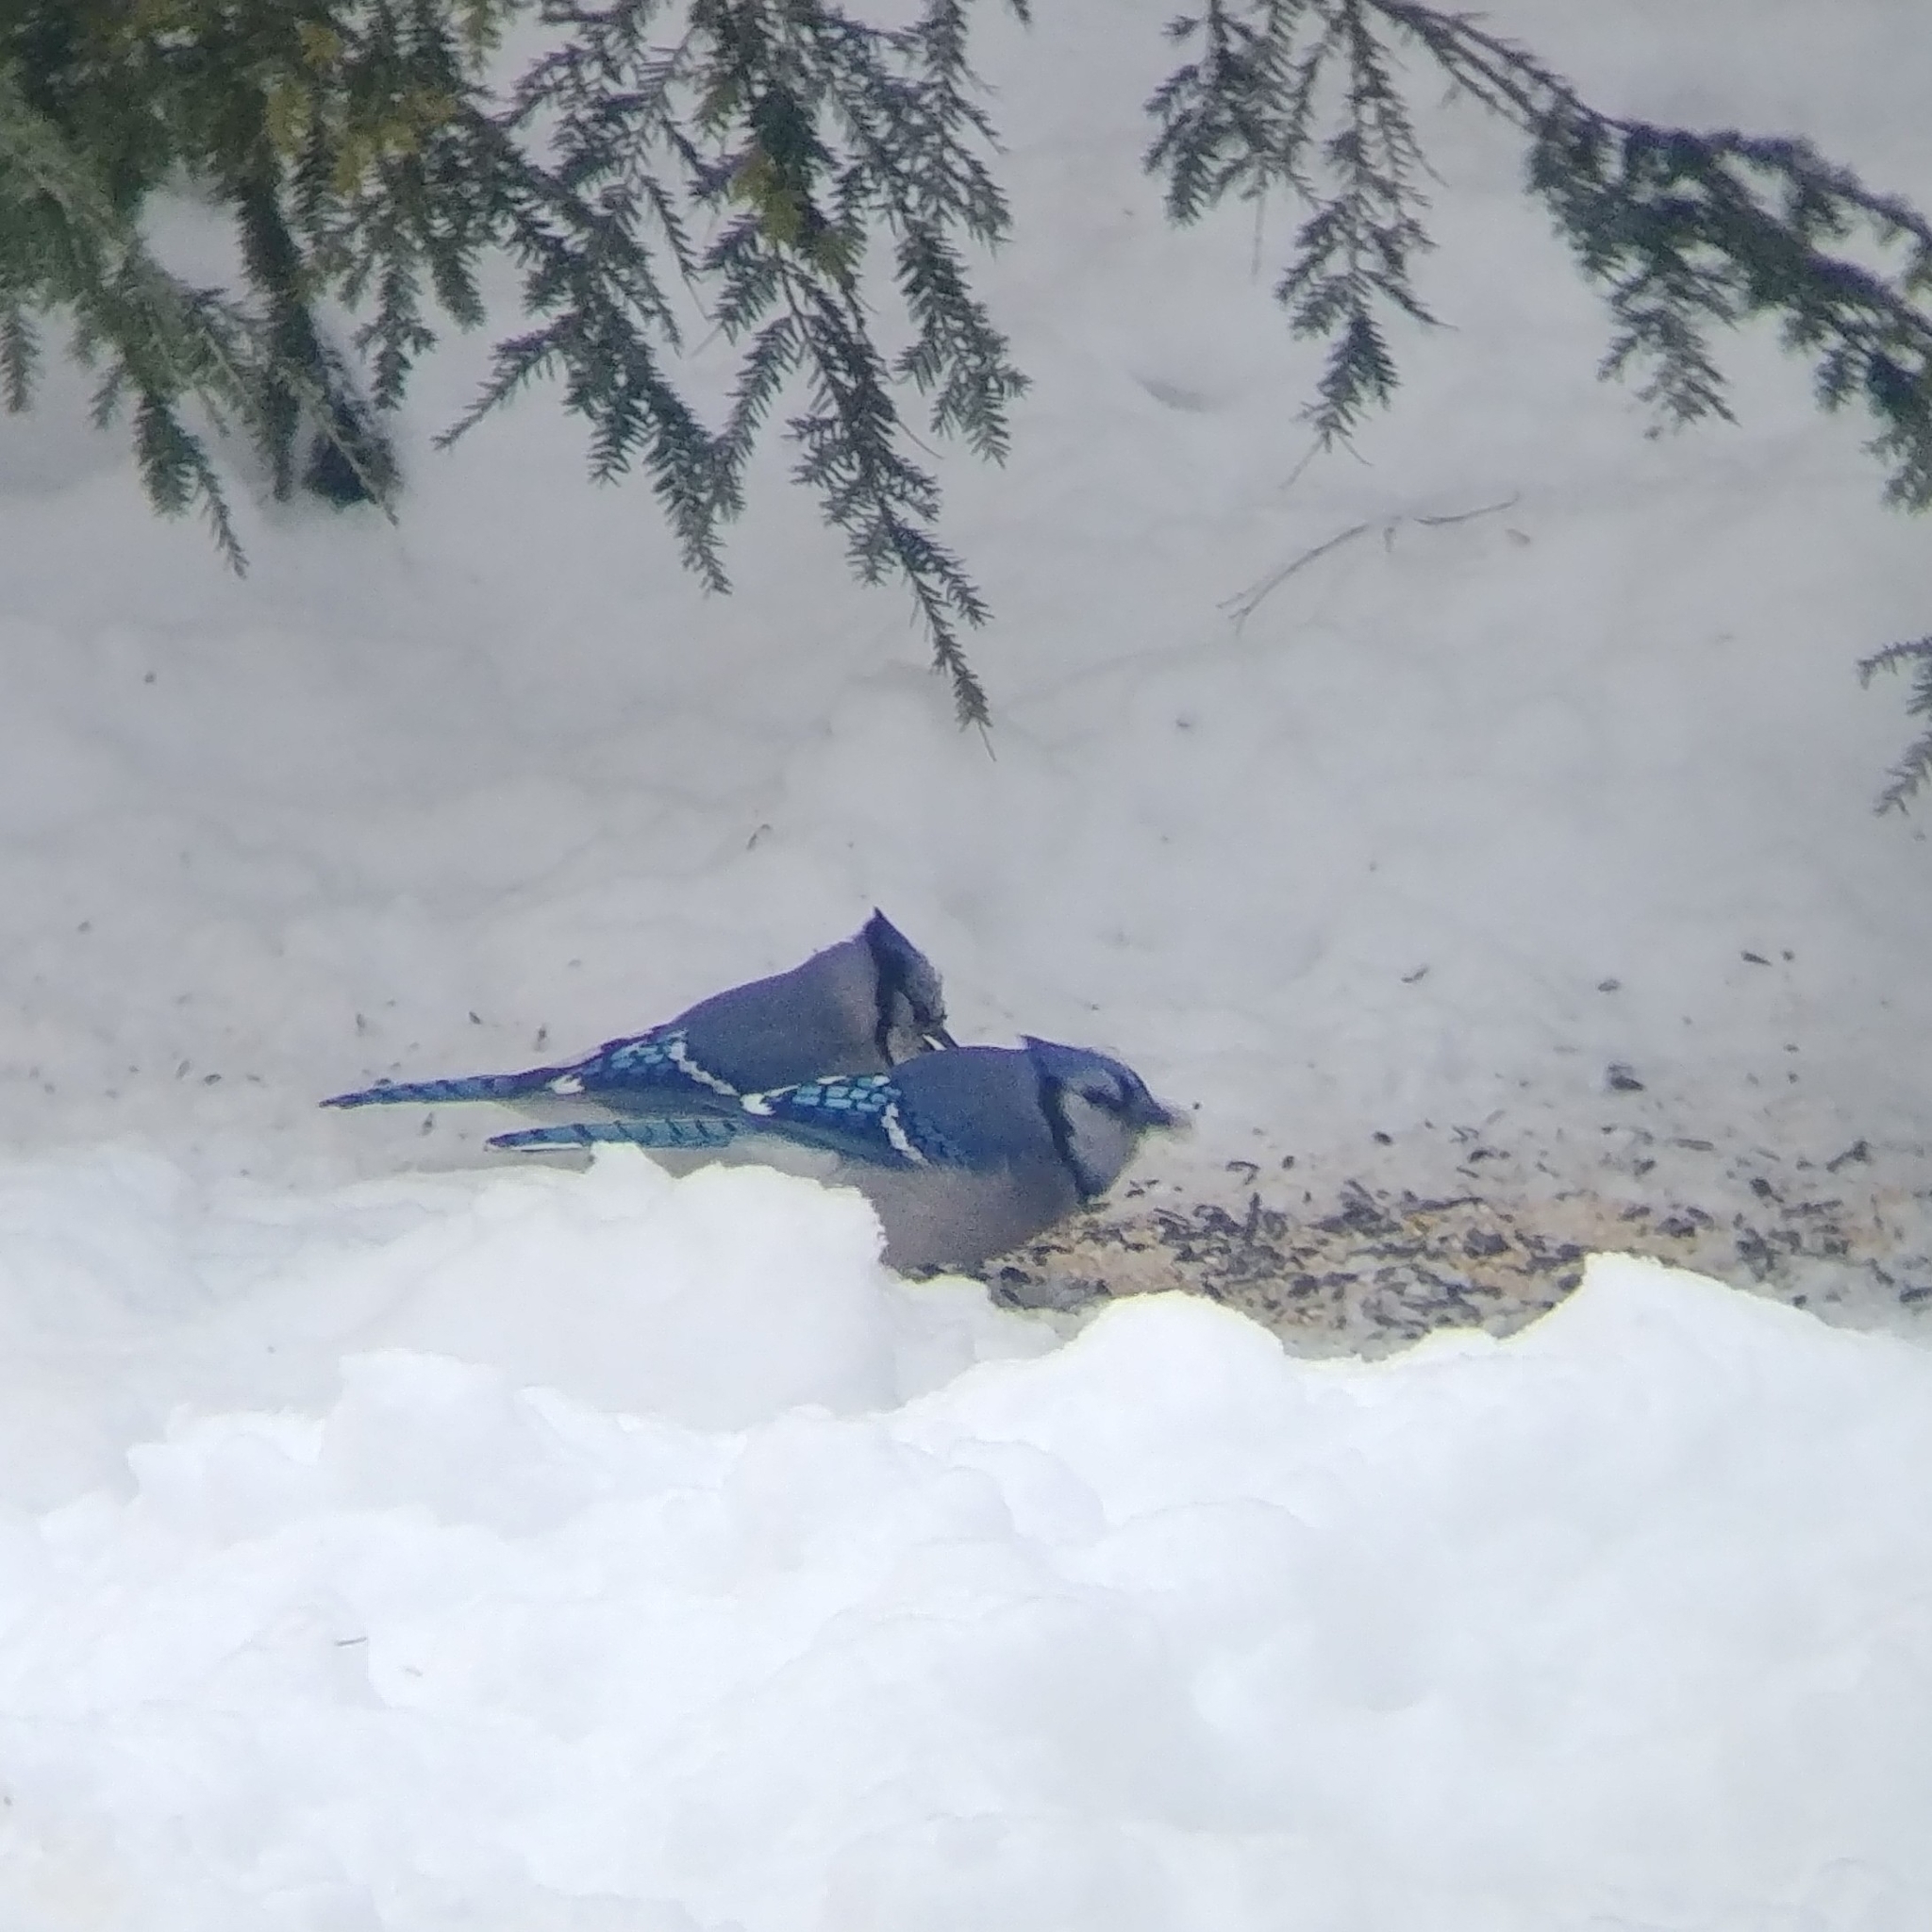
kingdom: Animalia
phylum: Chordata
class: Aves
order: Passeriformes
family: Corvidae
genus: Cyanocitta
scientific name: Cyanocitta cristata
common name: Blue jay
